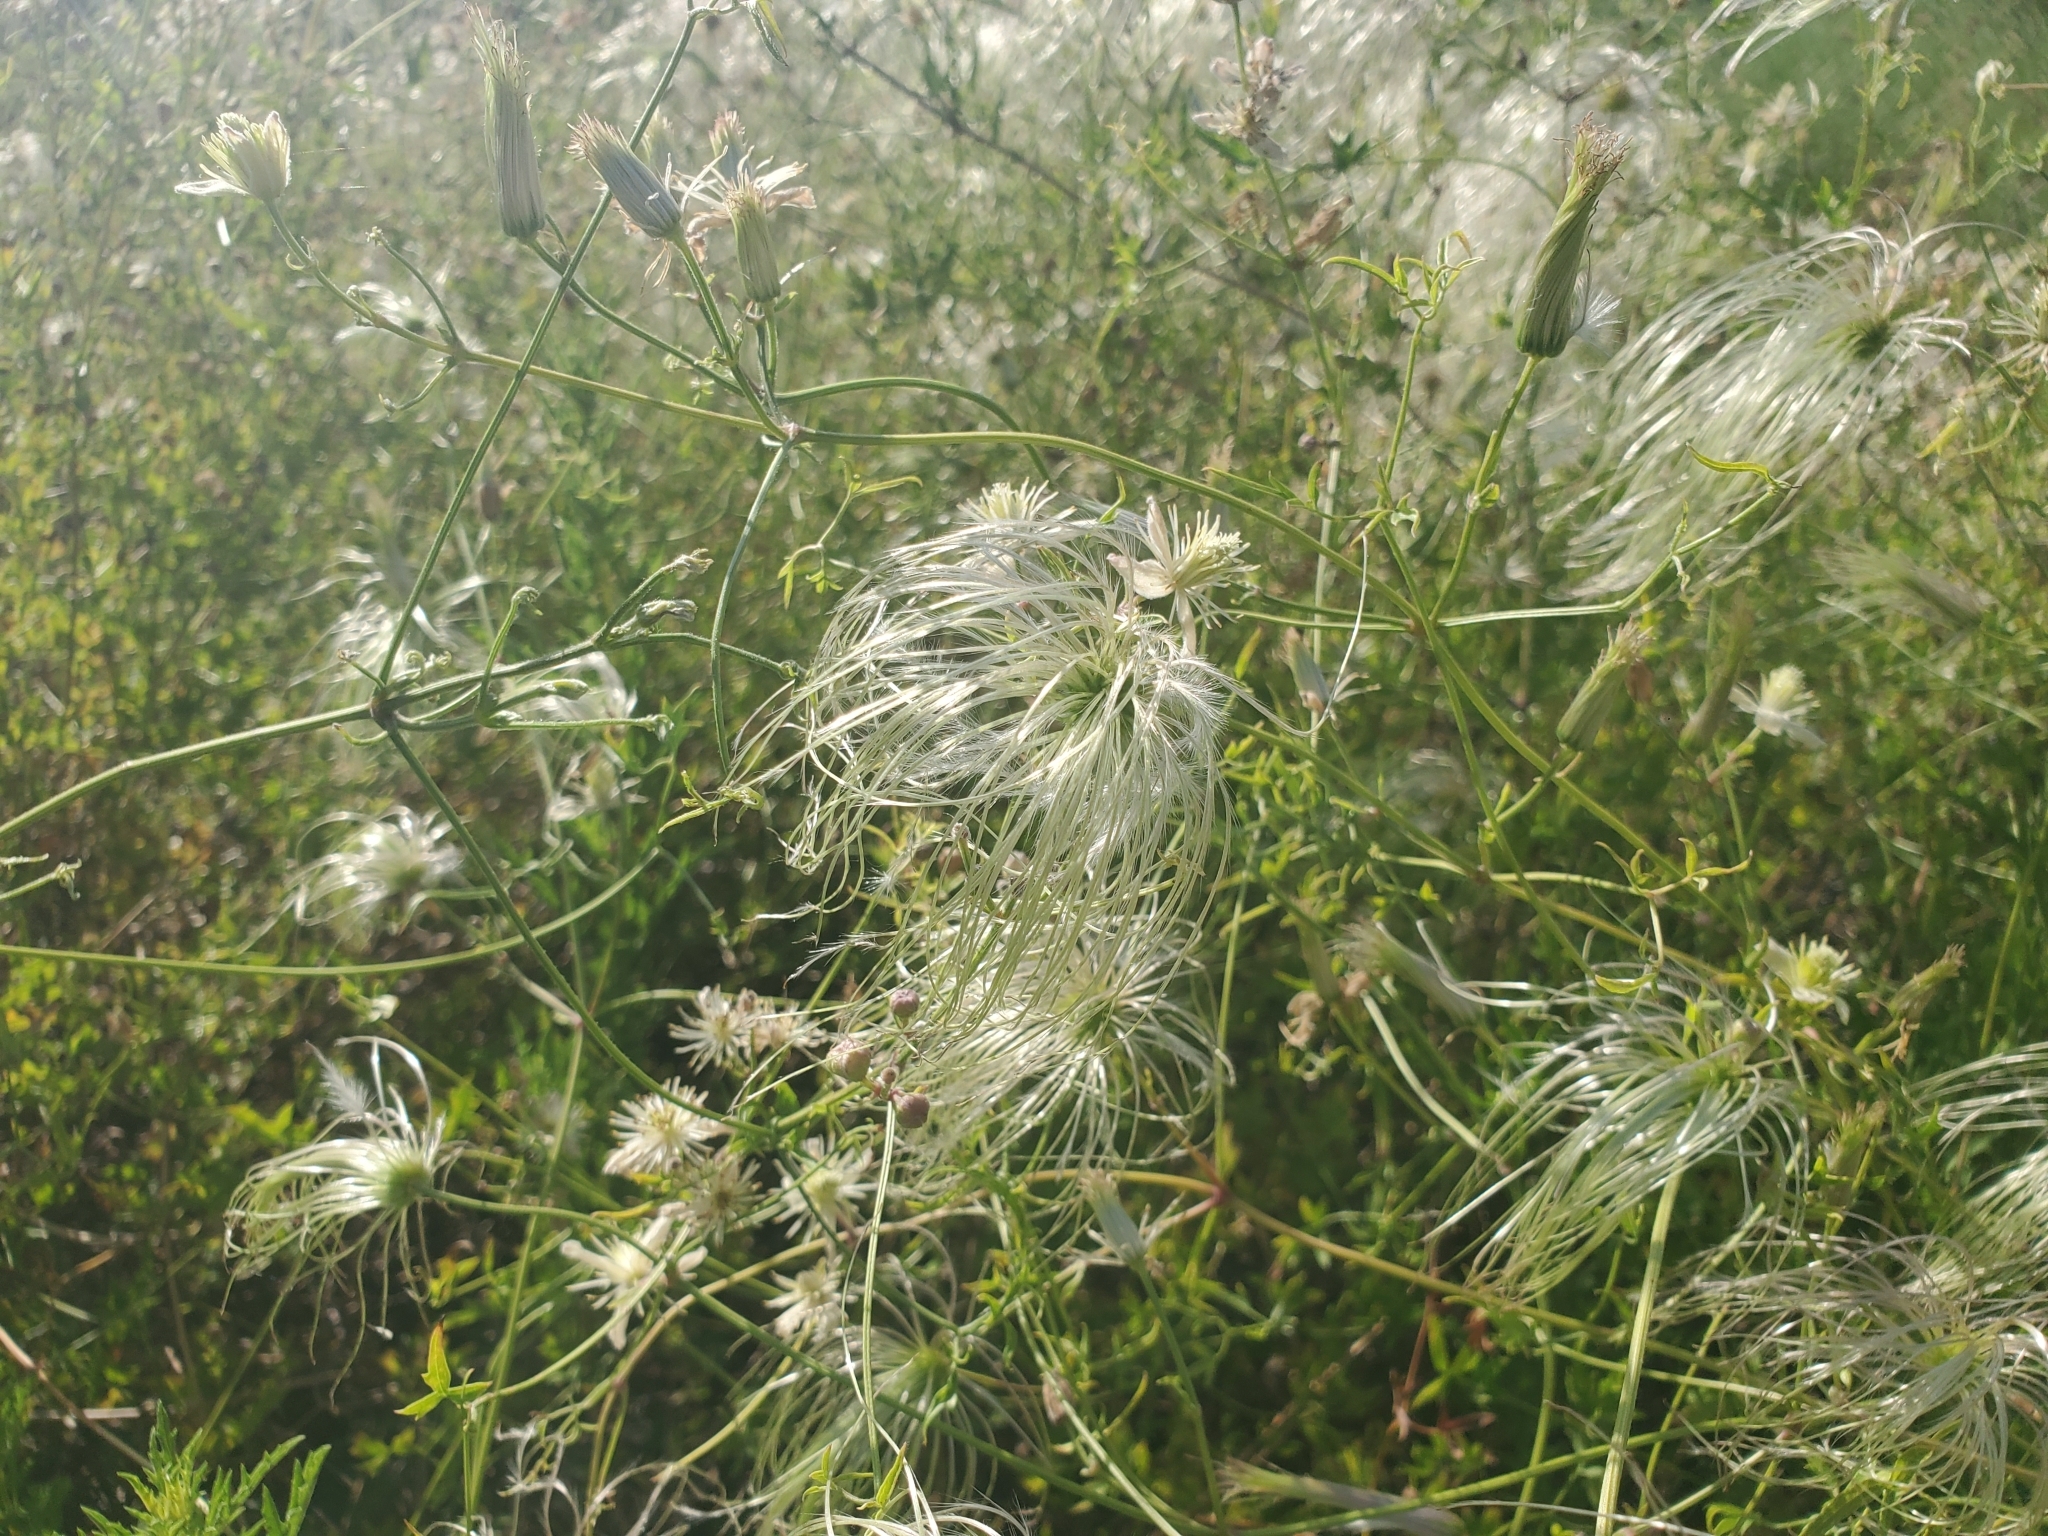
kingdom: Plantae
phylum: Tracheophyta
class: Magnoliopsida
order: Ranunculales
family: Ranunculaceae
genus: Clematis
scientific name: Clematis drummondii
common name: Texas virgin's bower
